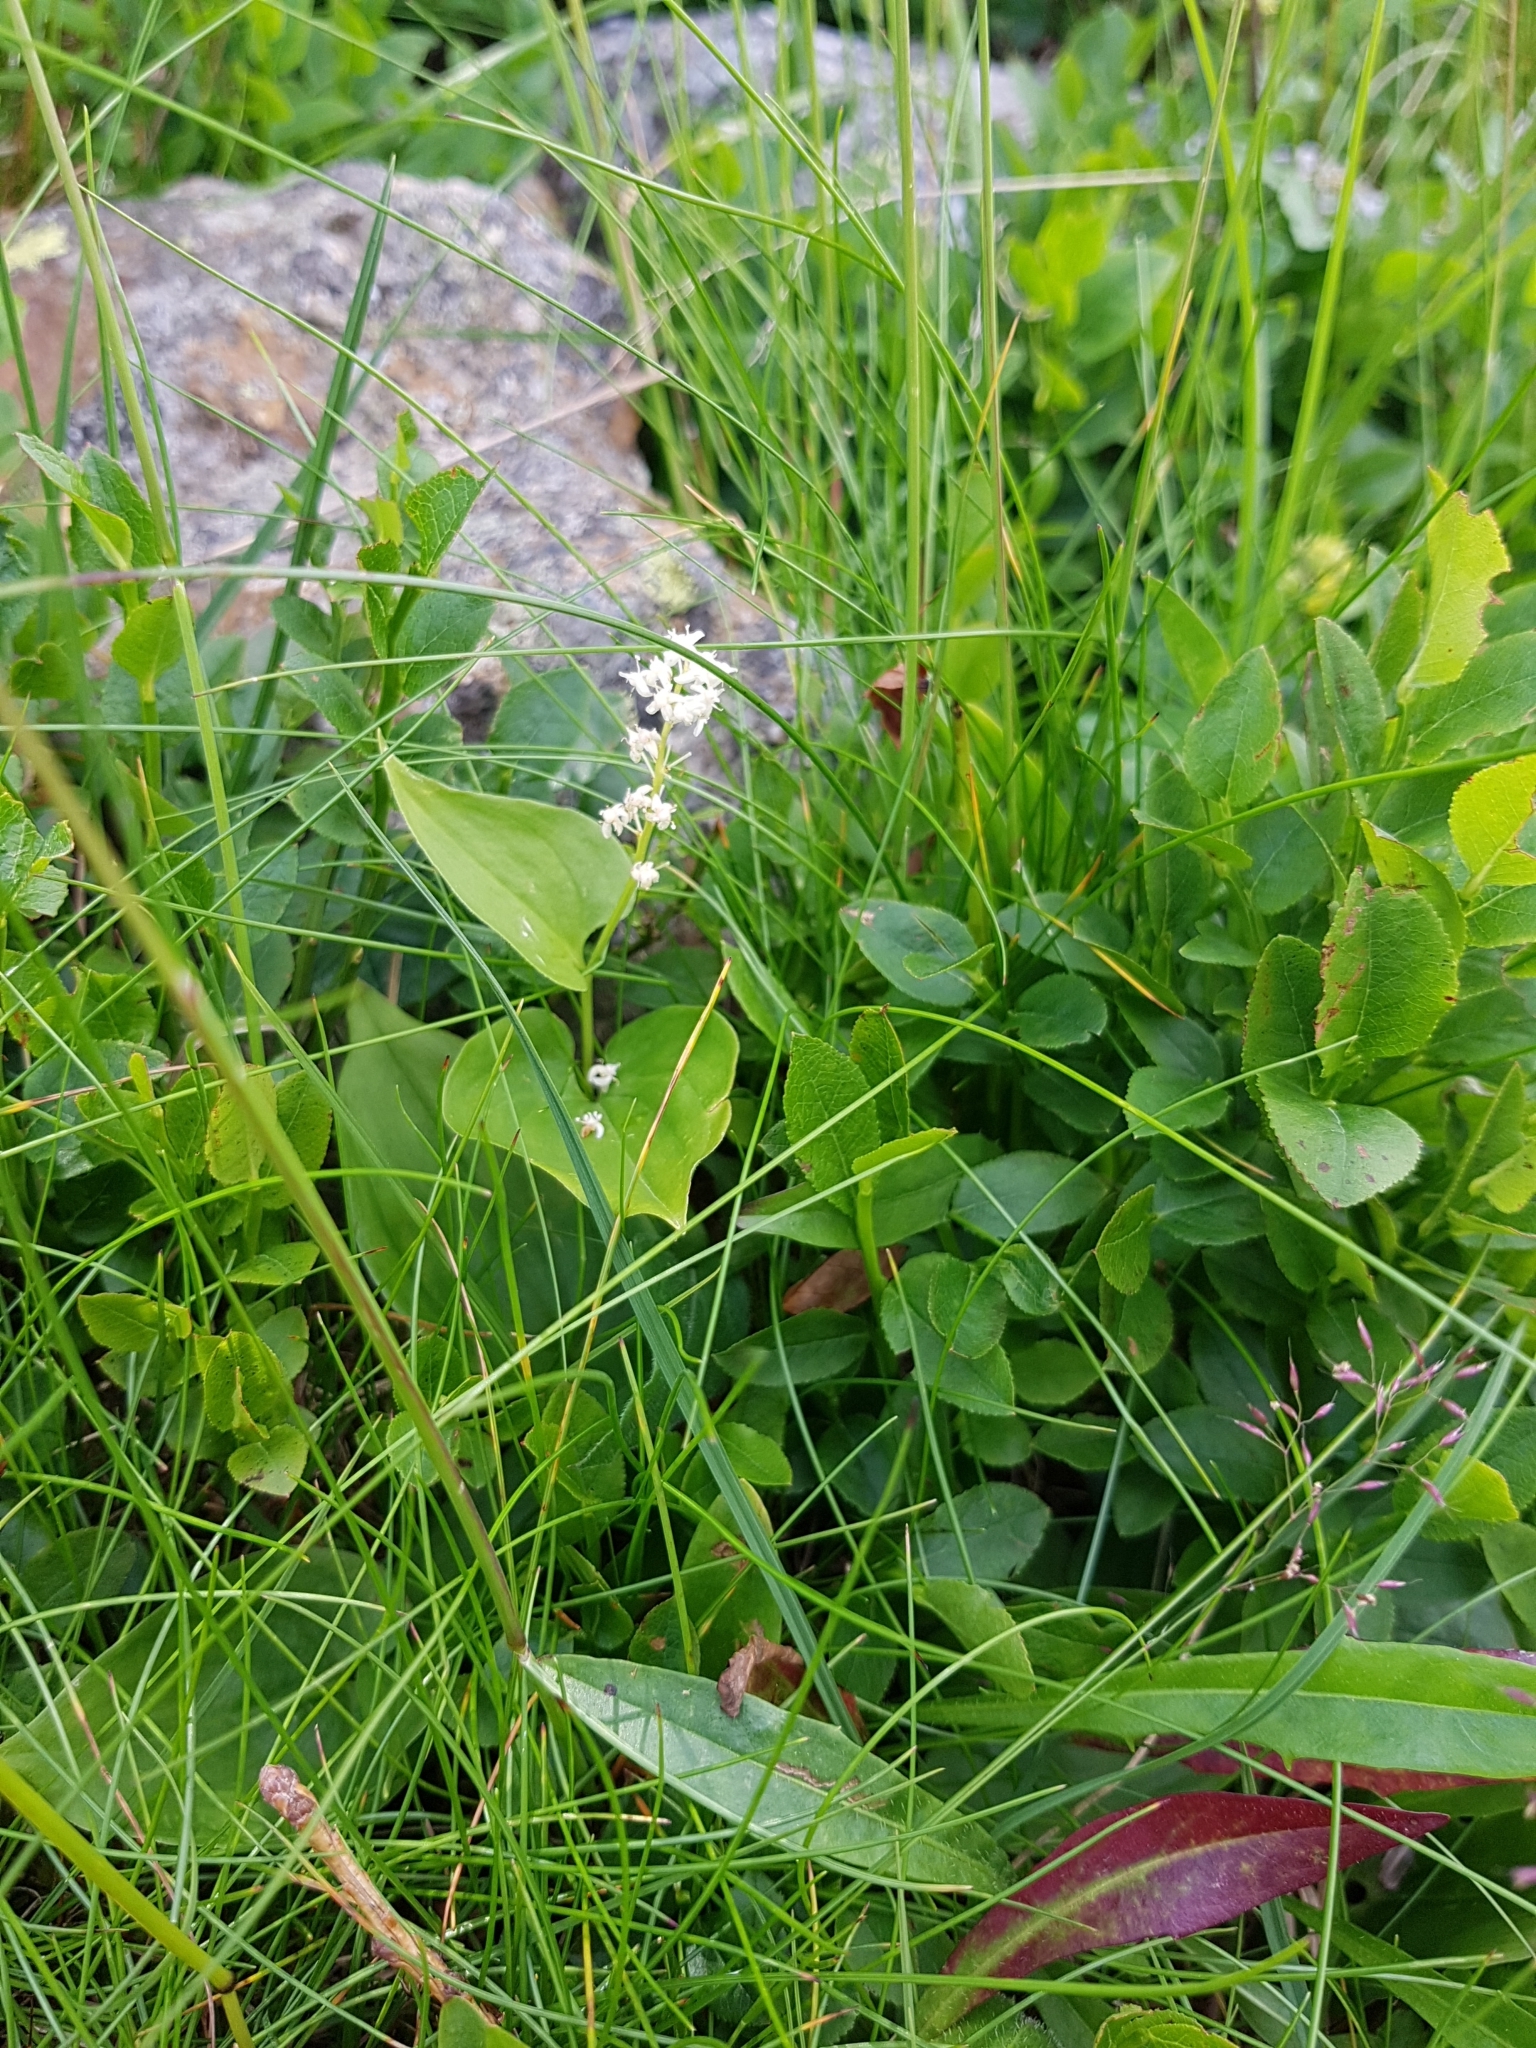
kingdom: Plantae
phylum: Tracheophyta
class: Liliopsida
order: Asparagales
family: Asparagaceae
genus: Maianthemum
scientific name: Maianthemum bifolium
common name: May lily
